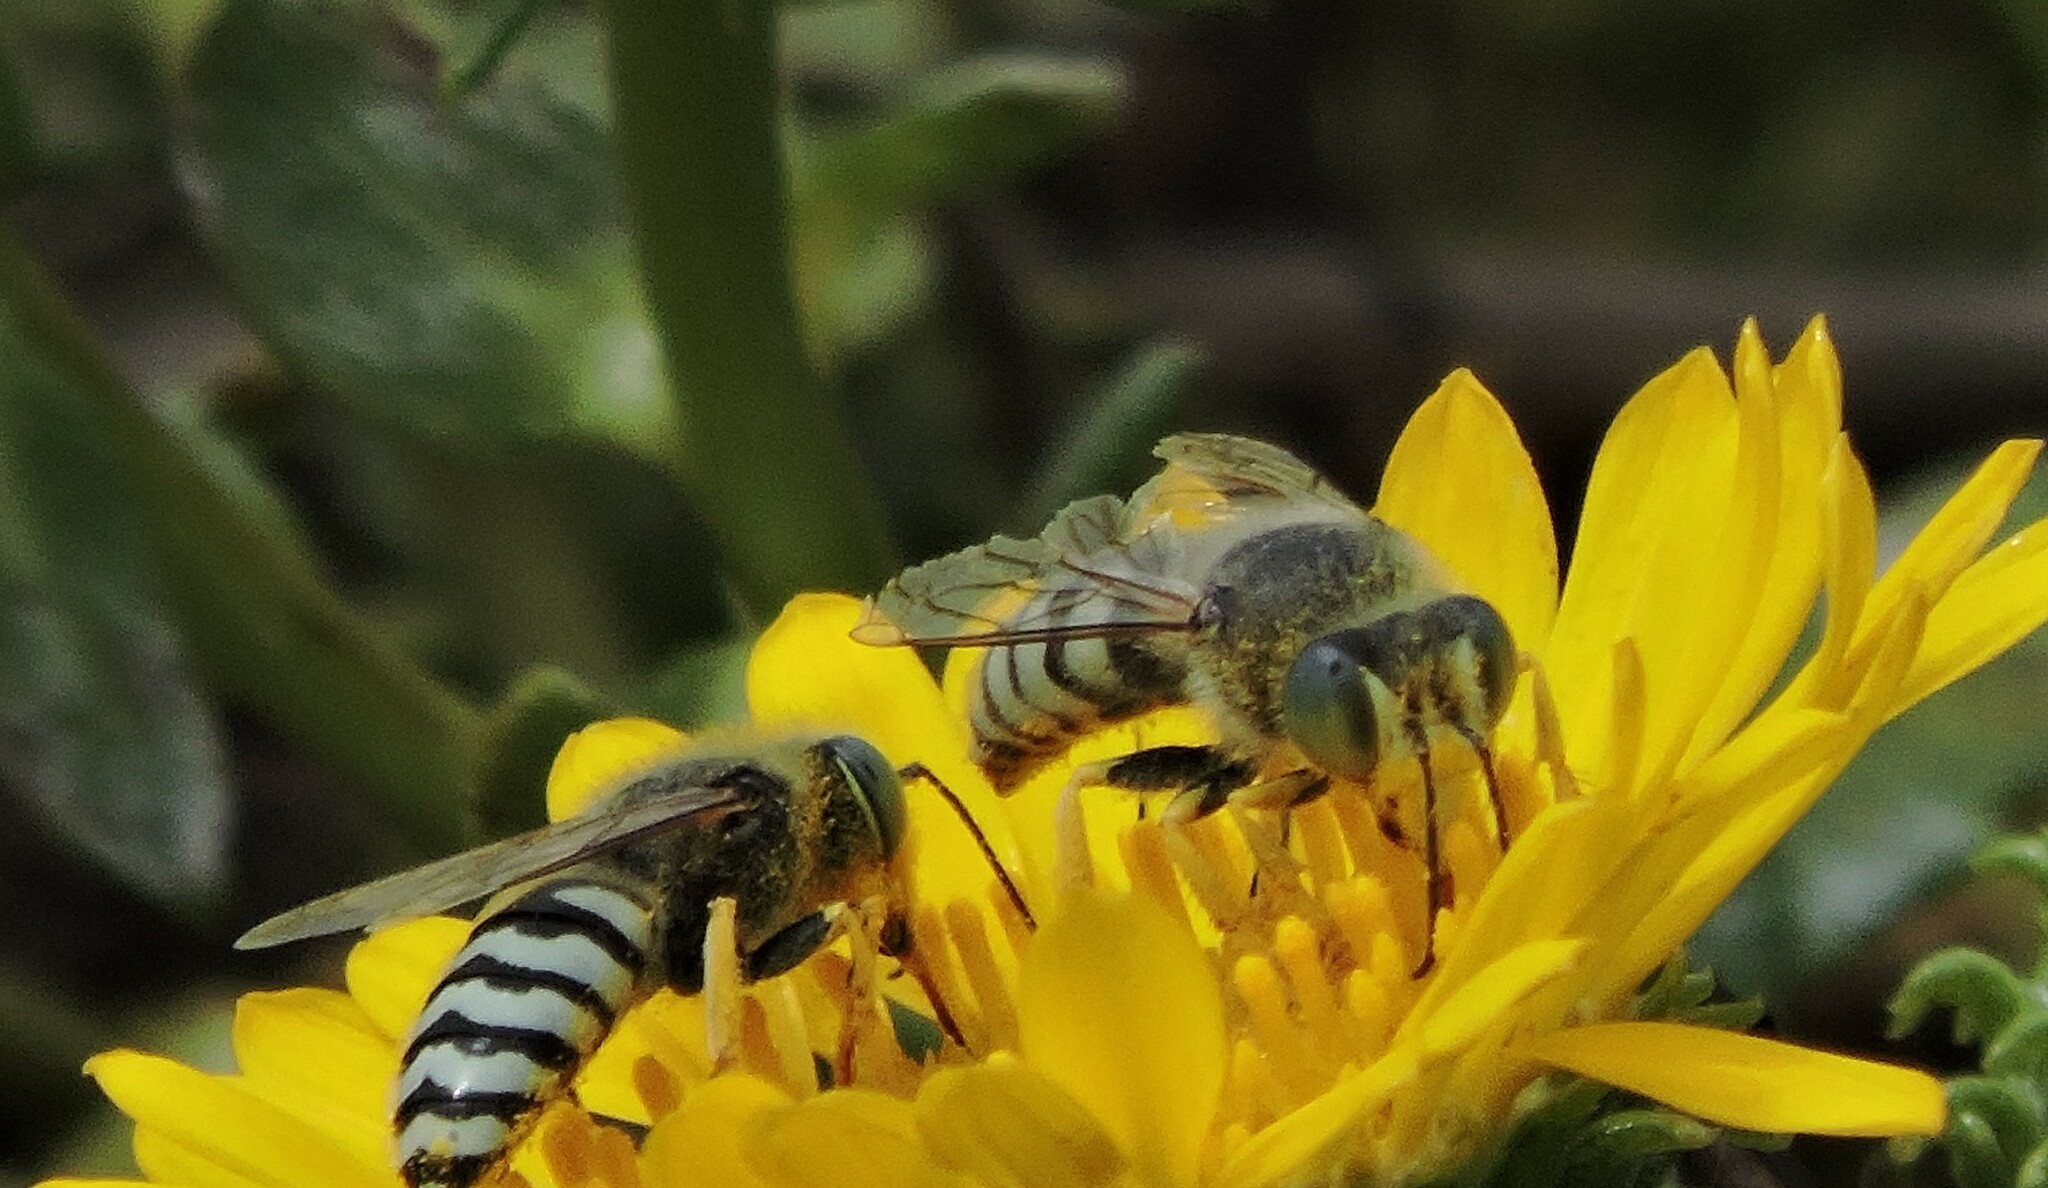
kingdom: Animalia
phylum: Arthropoda
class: Insecta
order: Hymenoptera
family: Crabronidae
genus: Bembix
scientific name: Bembix americana
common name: American sand wasp
